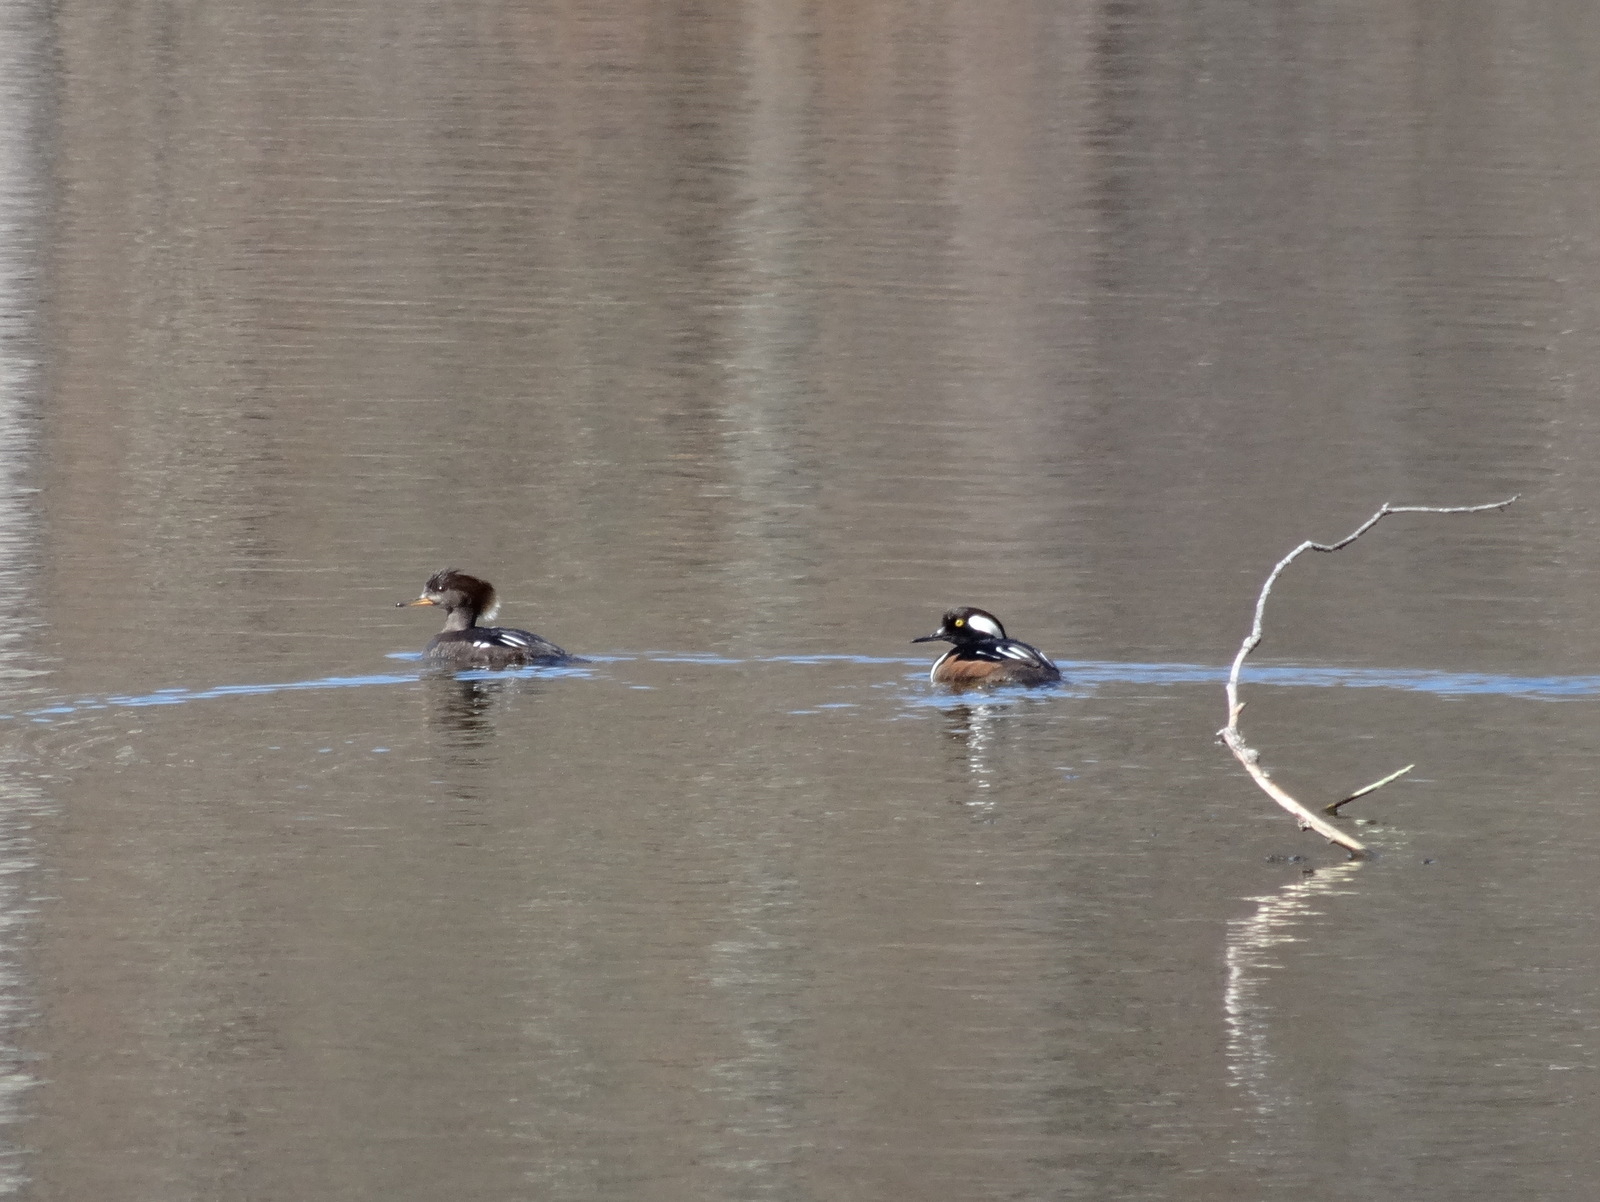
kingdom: Animalia
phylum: Chordata
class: Aves
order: Anseriformes
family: Anatidae
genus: Lophodytes
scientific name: Lophodytes cucullatus
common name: Hooded merganser
